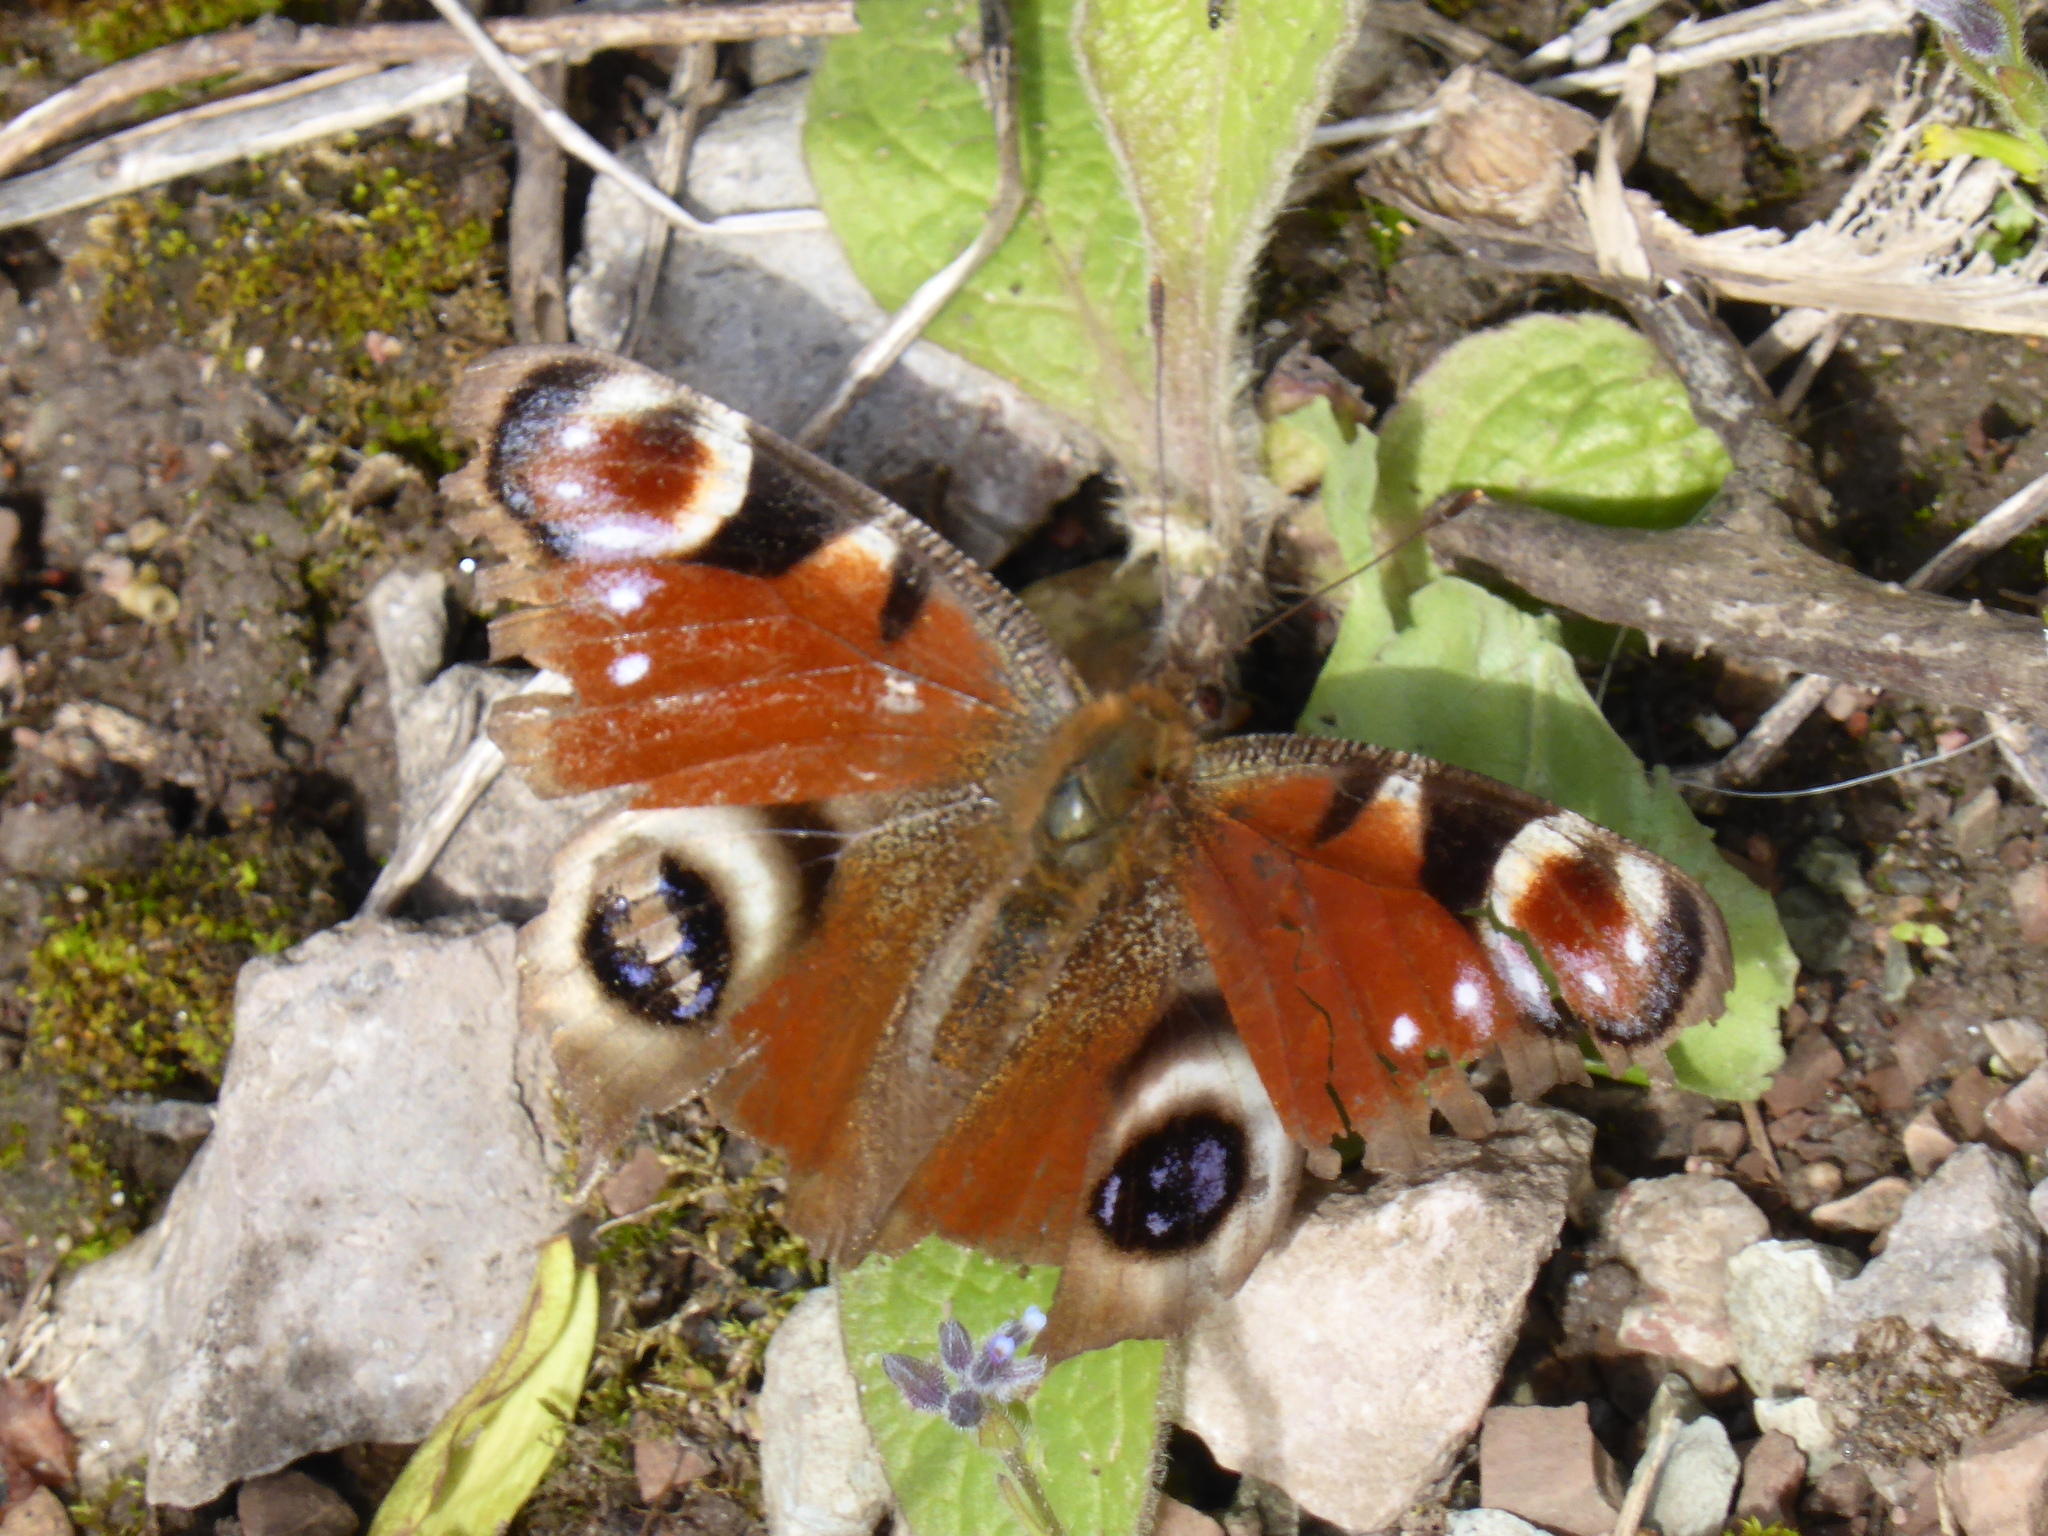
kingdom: Animalia
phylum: Arthropoda
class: Insecta
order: Lepidoptera
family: Nymphalidae
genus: Aglais
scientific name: Aglais io
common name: Peacock
